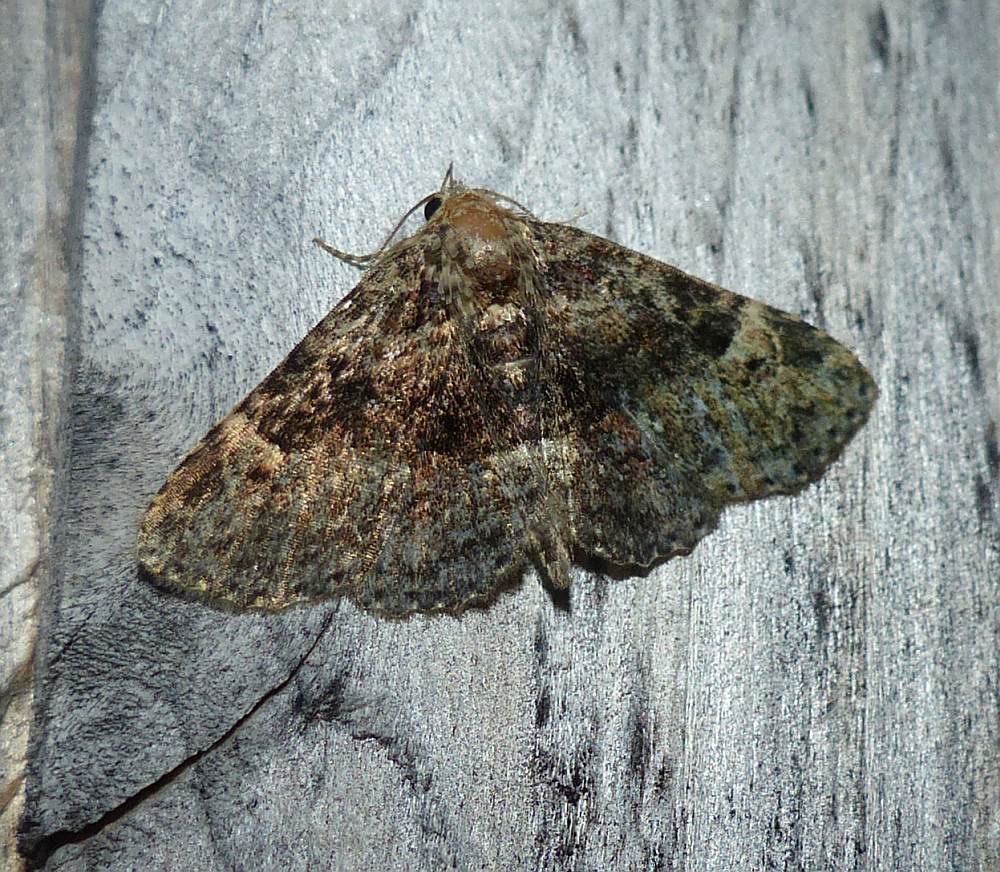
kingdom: Animalia
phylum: Arthropoda
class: Insecta
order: Lepidoptera
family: Erebidae
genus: Metalectra
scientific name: Metalectra discalis
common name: Common fungus moth
